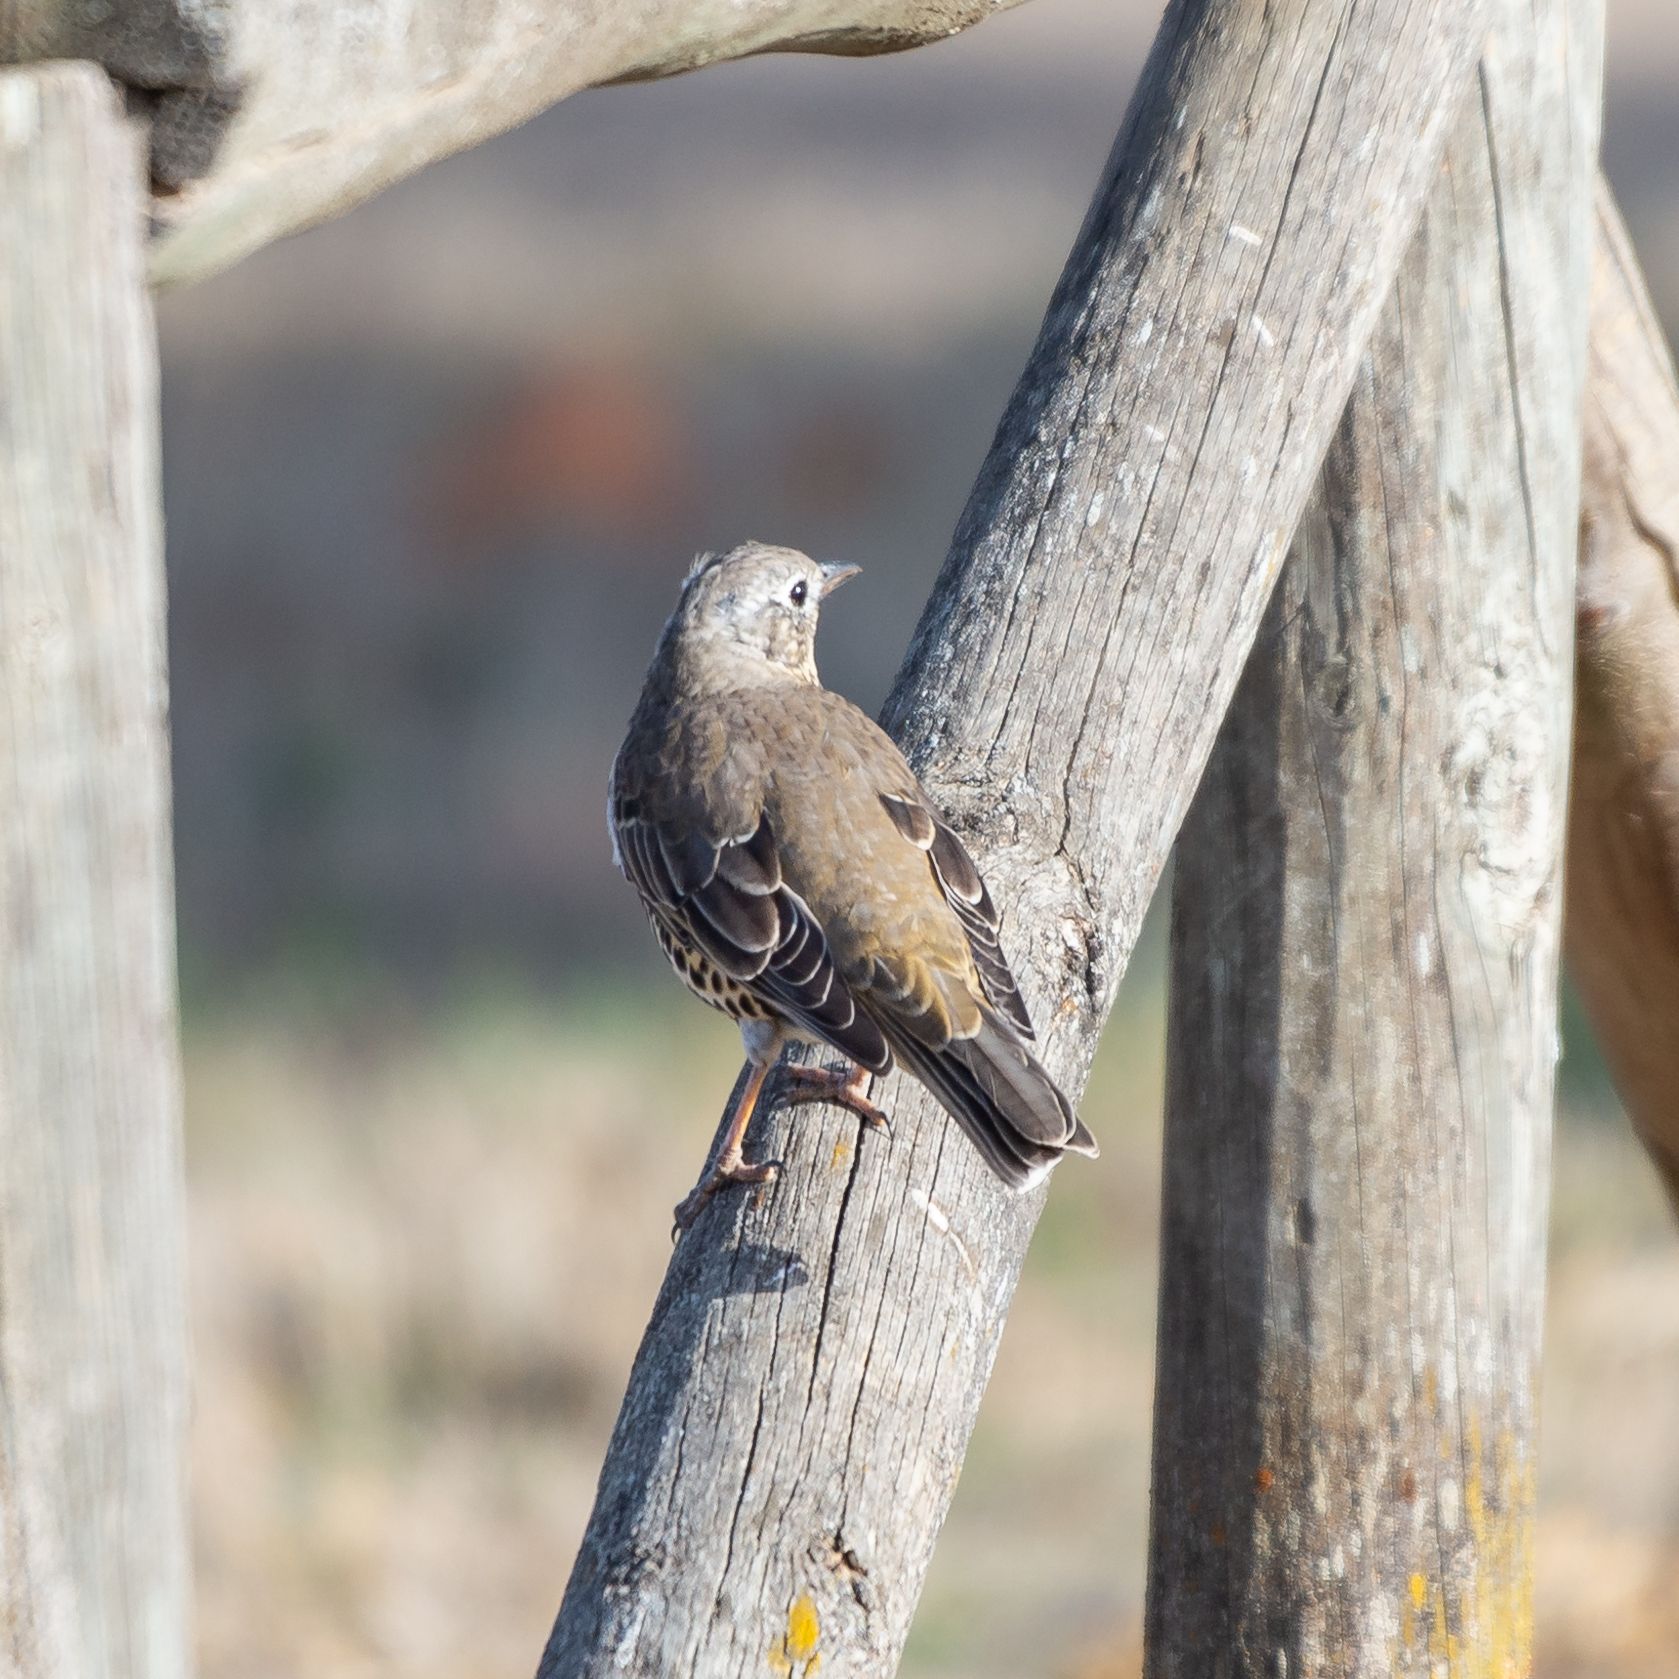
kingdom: Animalia
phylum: Chordata
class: Aves
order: Passeriformes
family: Turdidae
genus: Turdus
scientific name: Turdus viscivorus
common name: Mistle thrush
